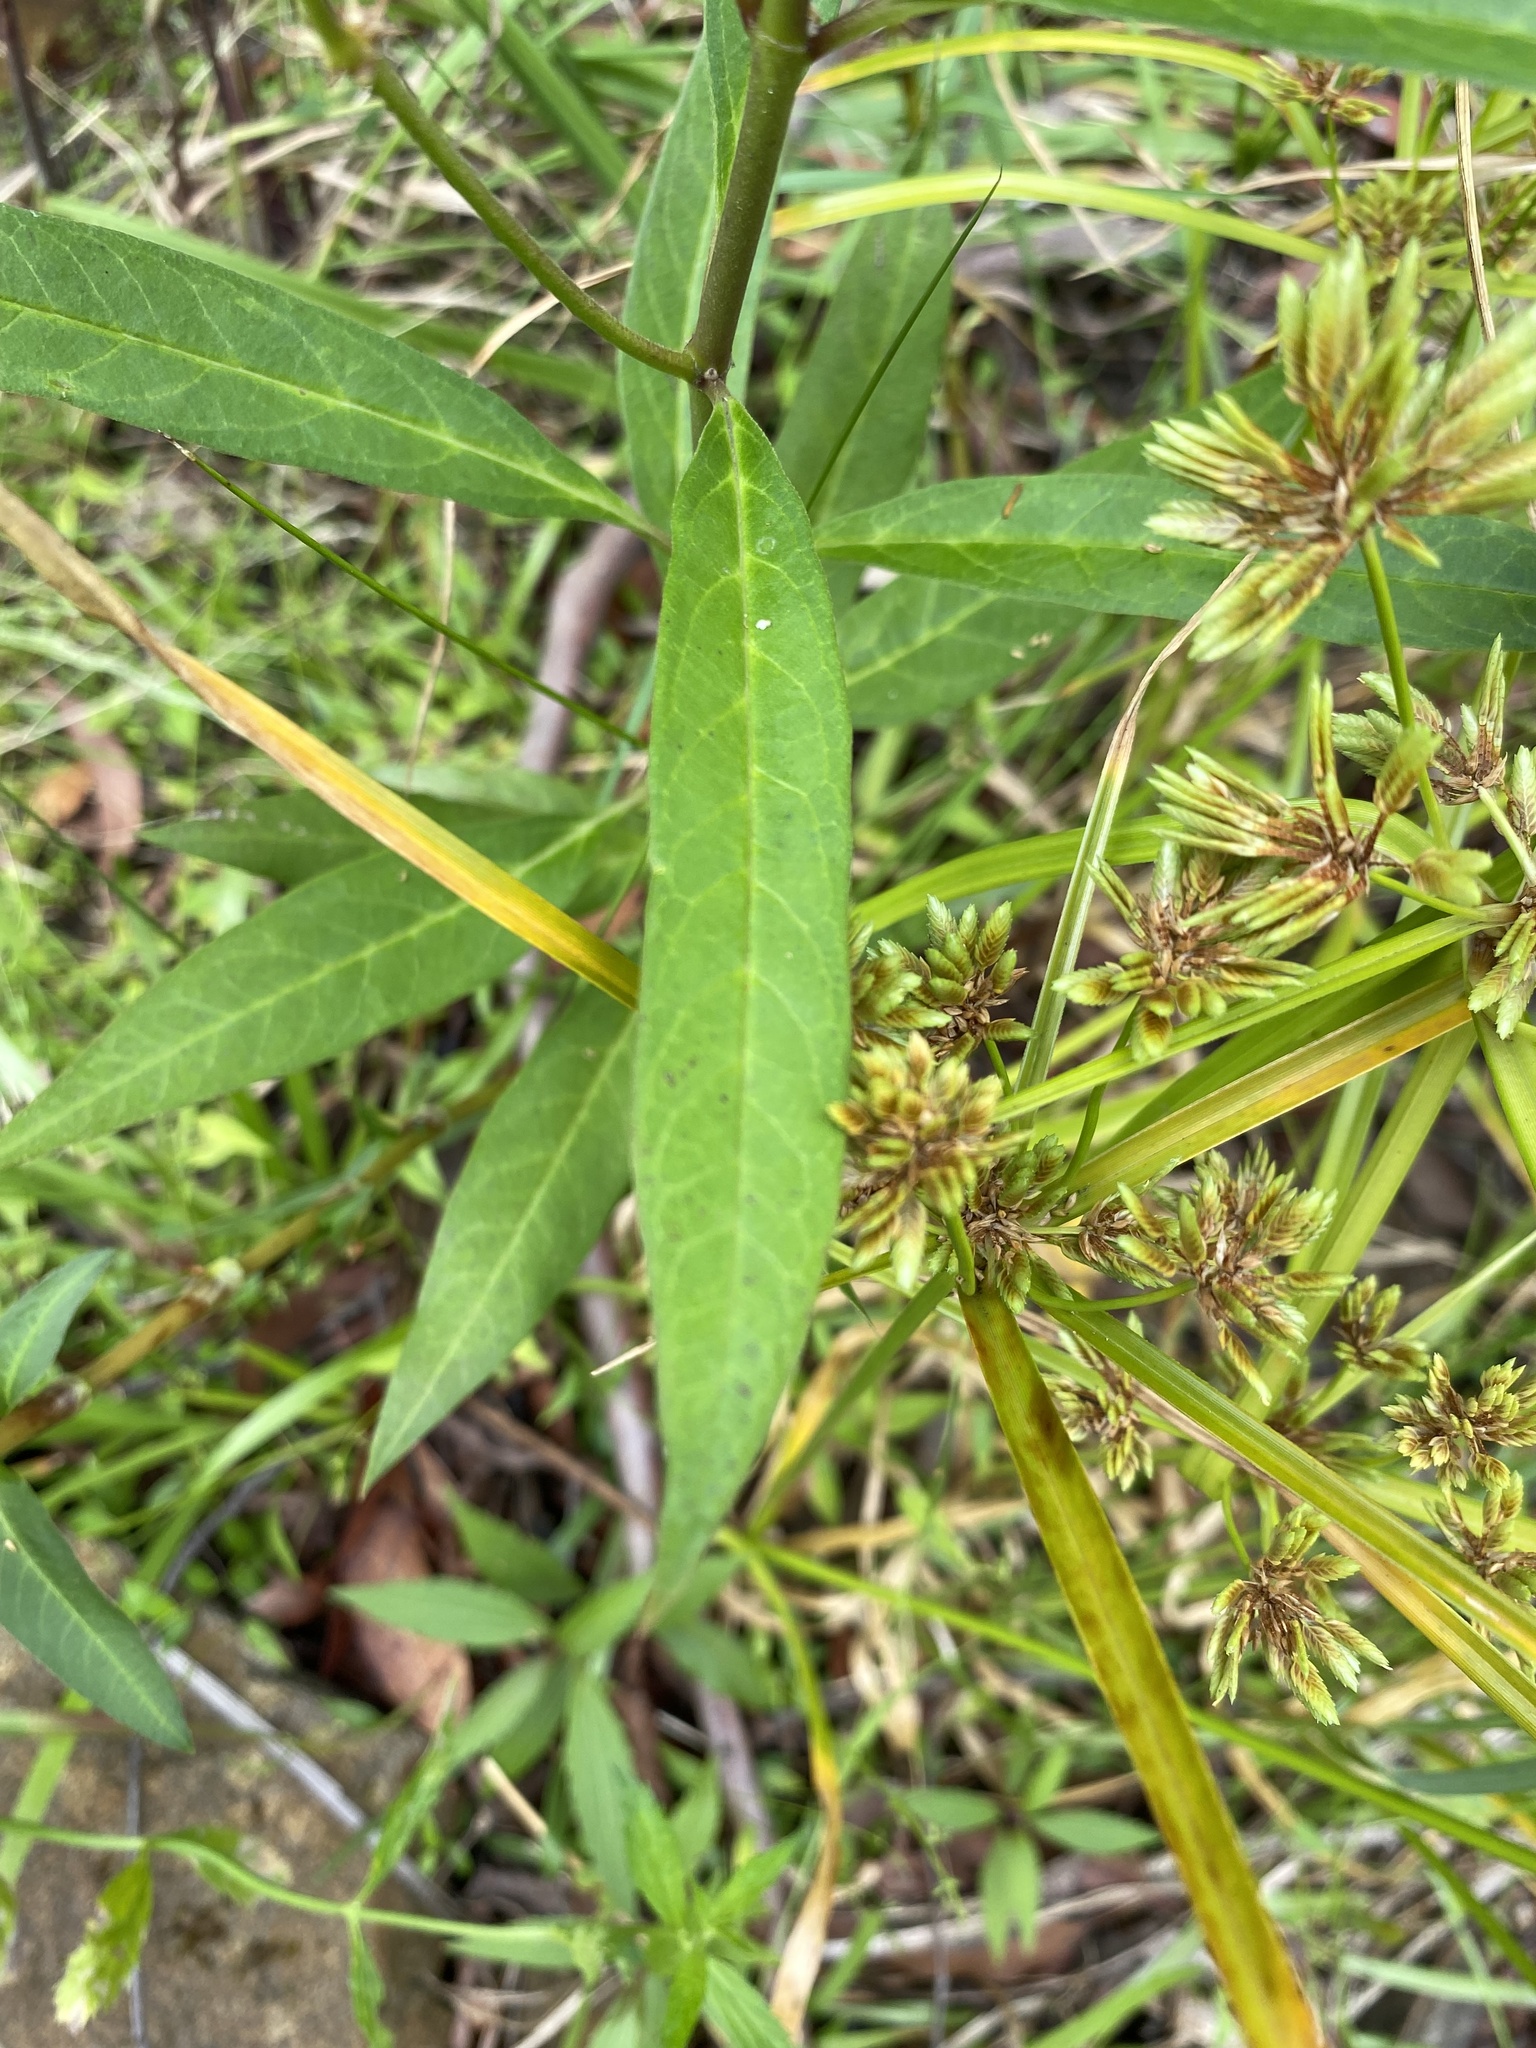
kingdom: Plantae
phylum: Tracheophyta
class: Magnoliopsida
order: Gentianales
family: Apocynaceae
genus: Asclepias
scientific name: Asclepias curassavica
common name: Bloodflower
